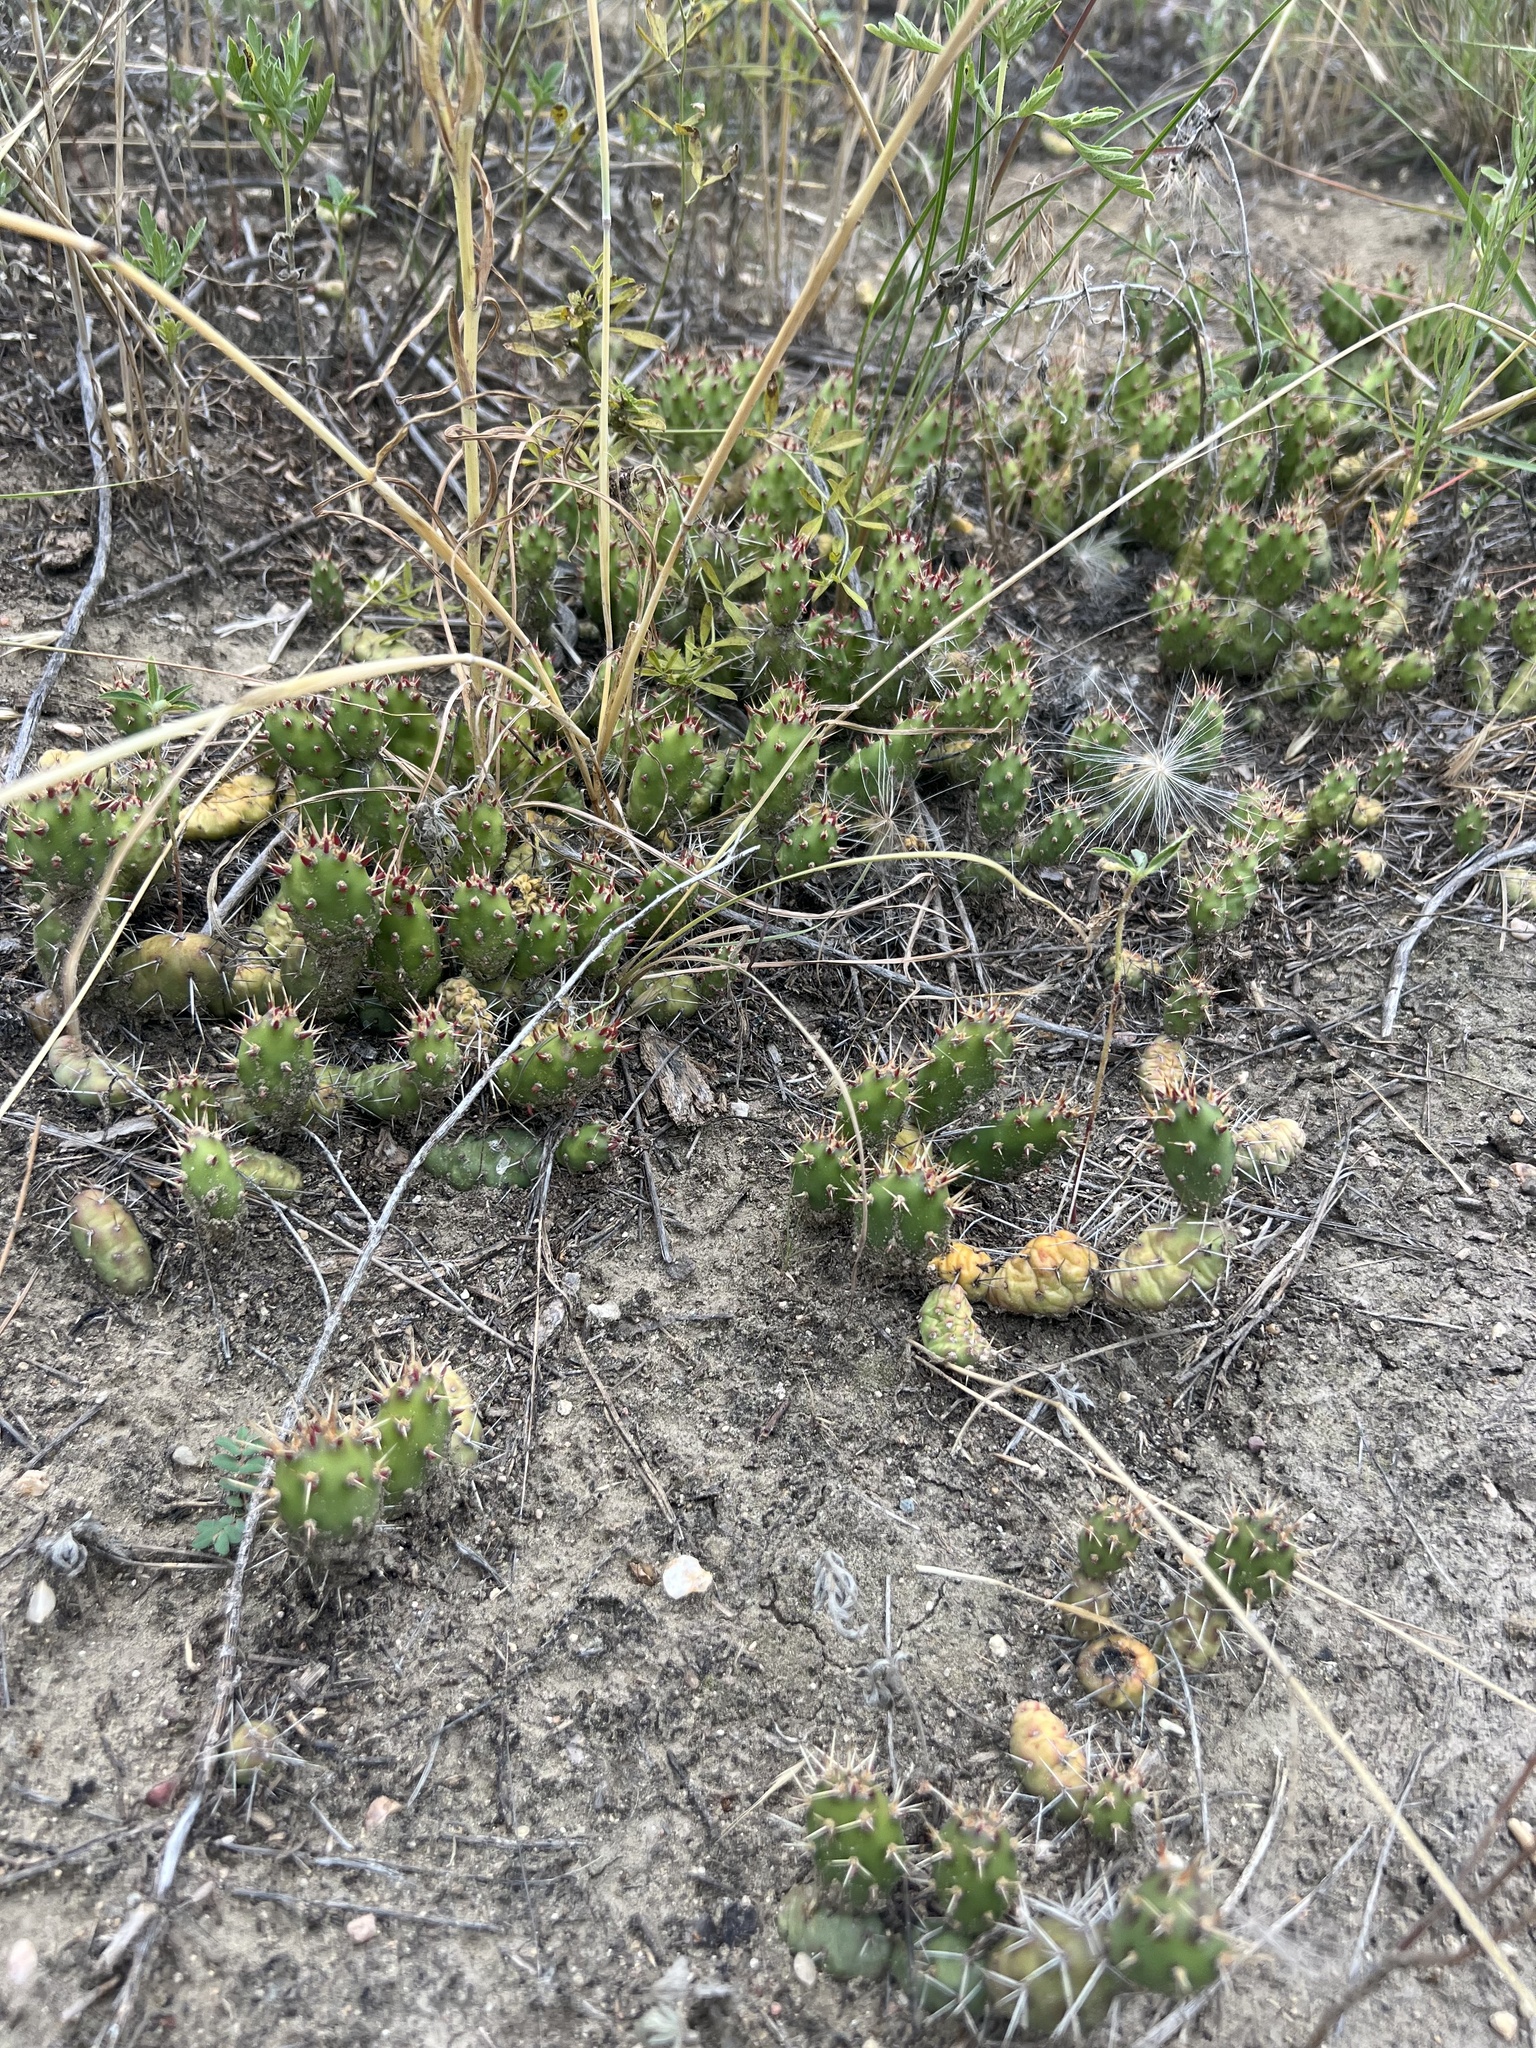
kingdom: Plantae
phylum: Tracheophyta
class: Magnoliopsida
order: Caryophyllales
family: Cactaceae
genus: Opuntia
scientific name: Opuntia fragilis
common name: Brittle cactus
